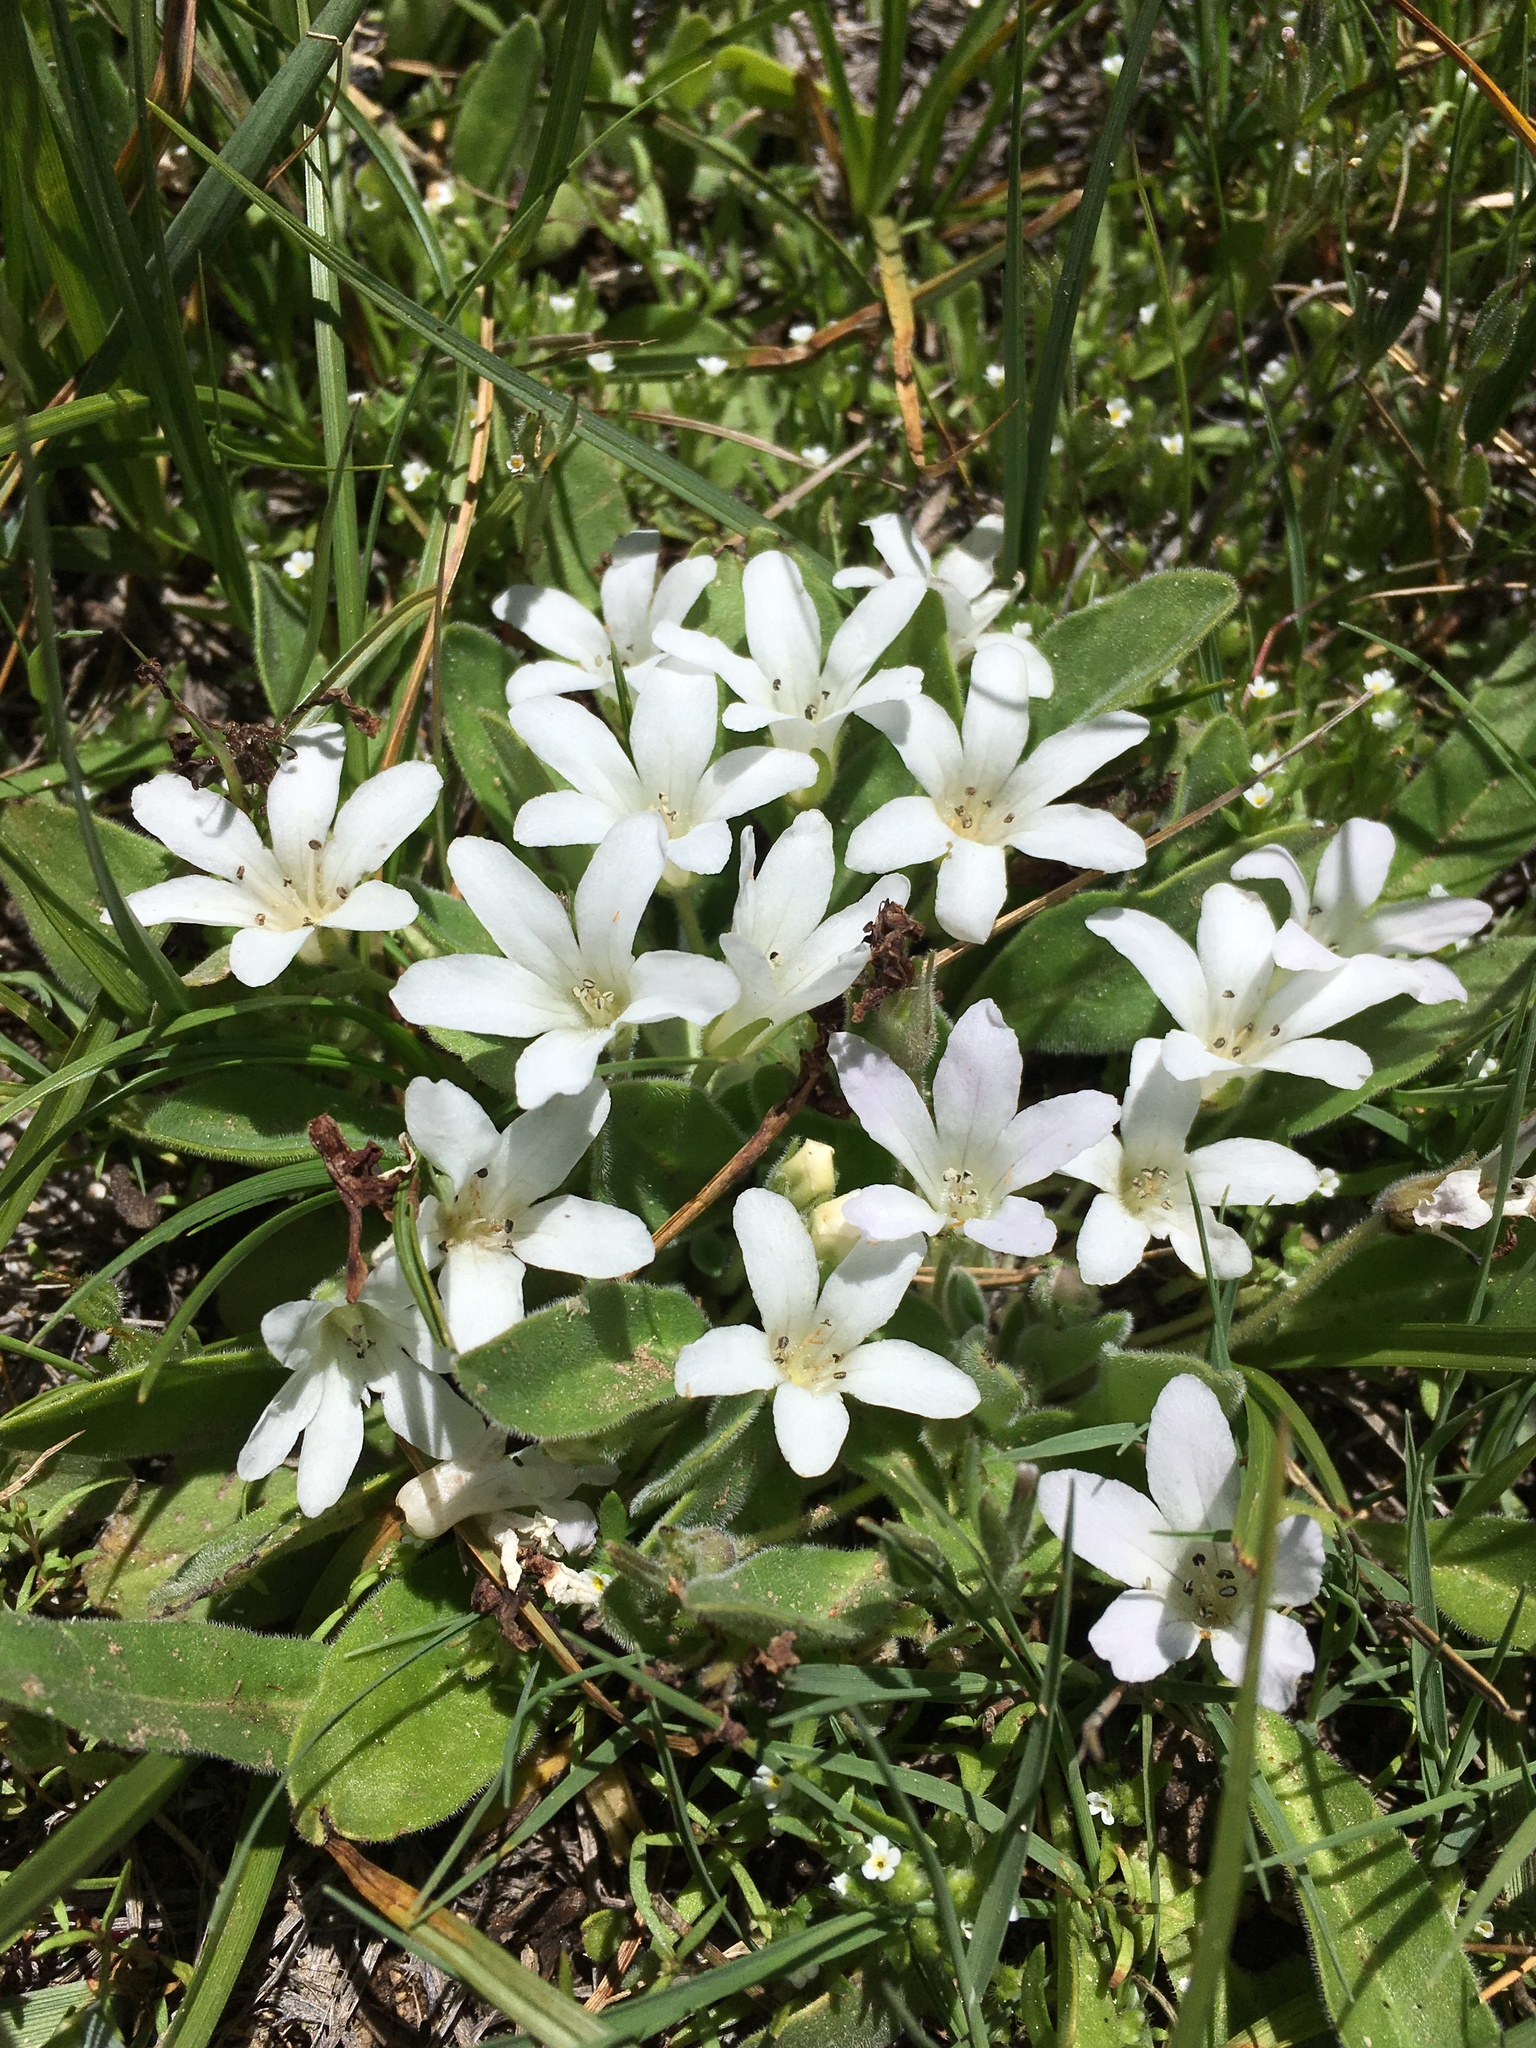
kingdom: Plantae
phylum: Tracheophyta
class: Magnoliopsida
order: Boraginales
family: Hydrophyllaceae
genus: Hesperochiron
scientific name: Hesperochiron californicus
